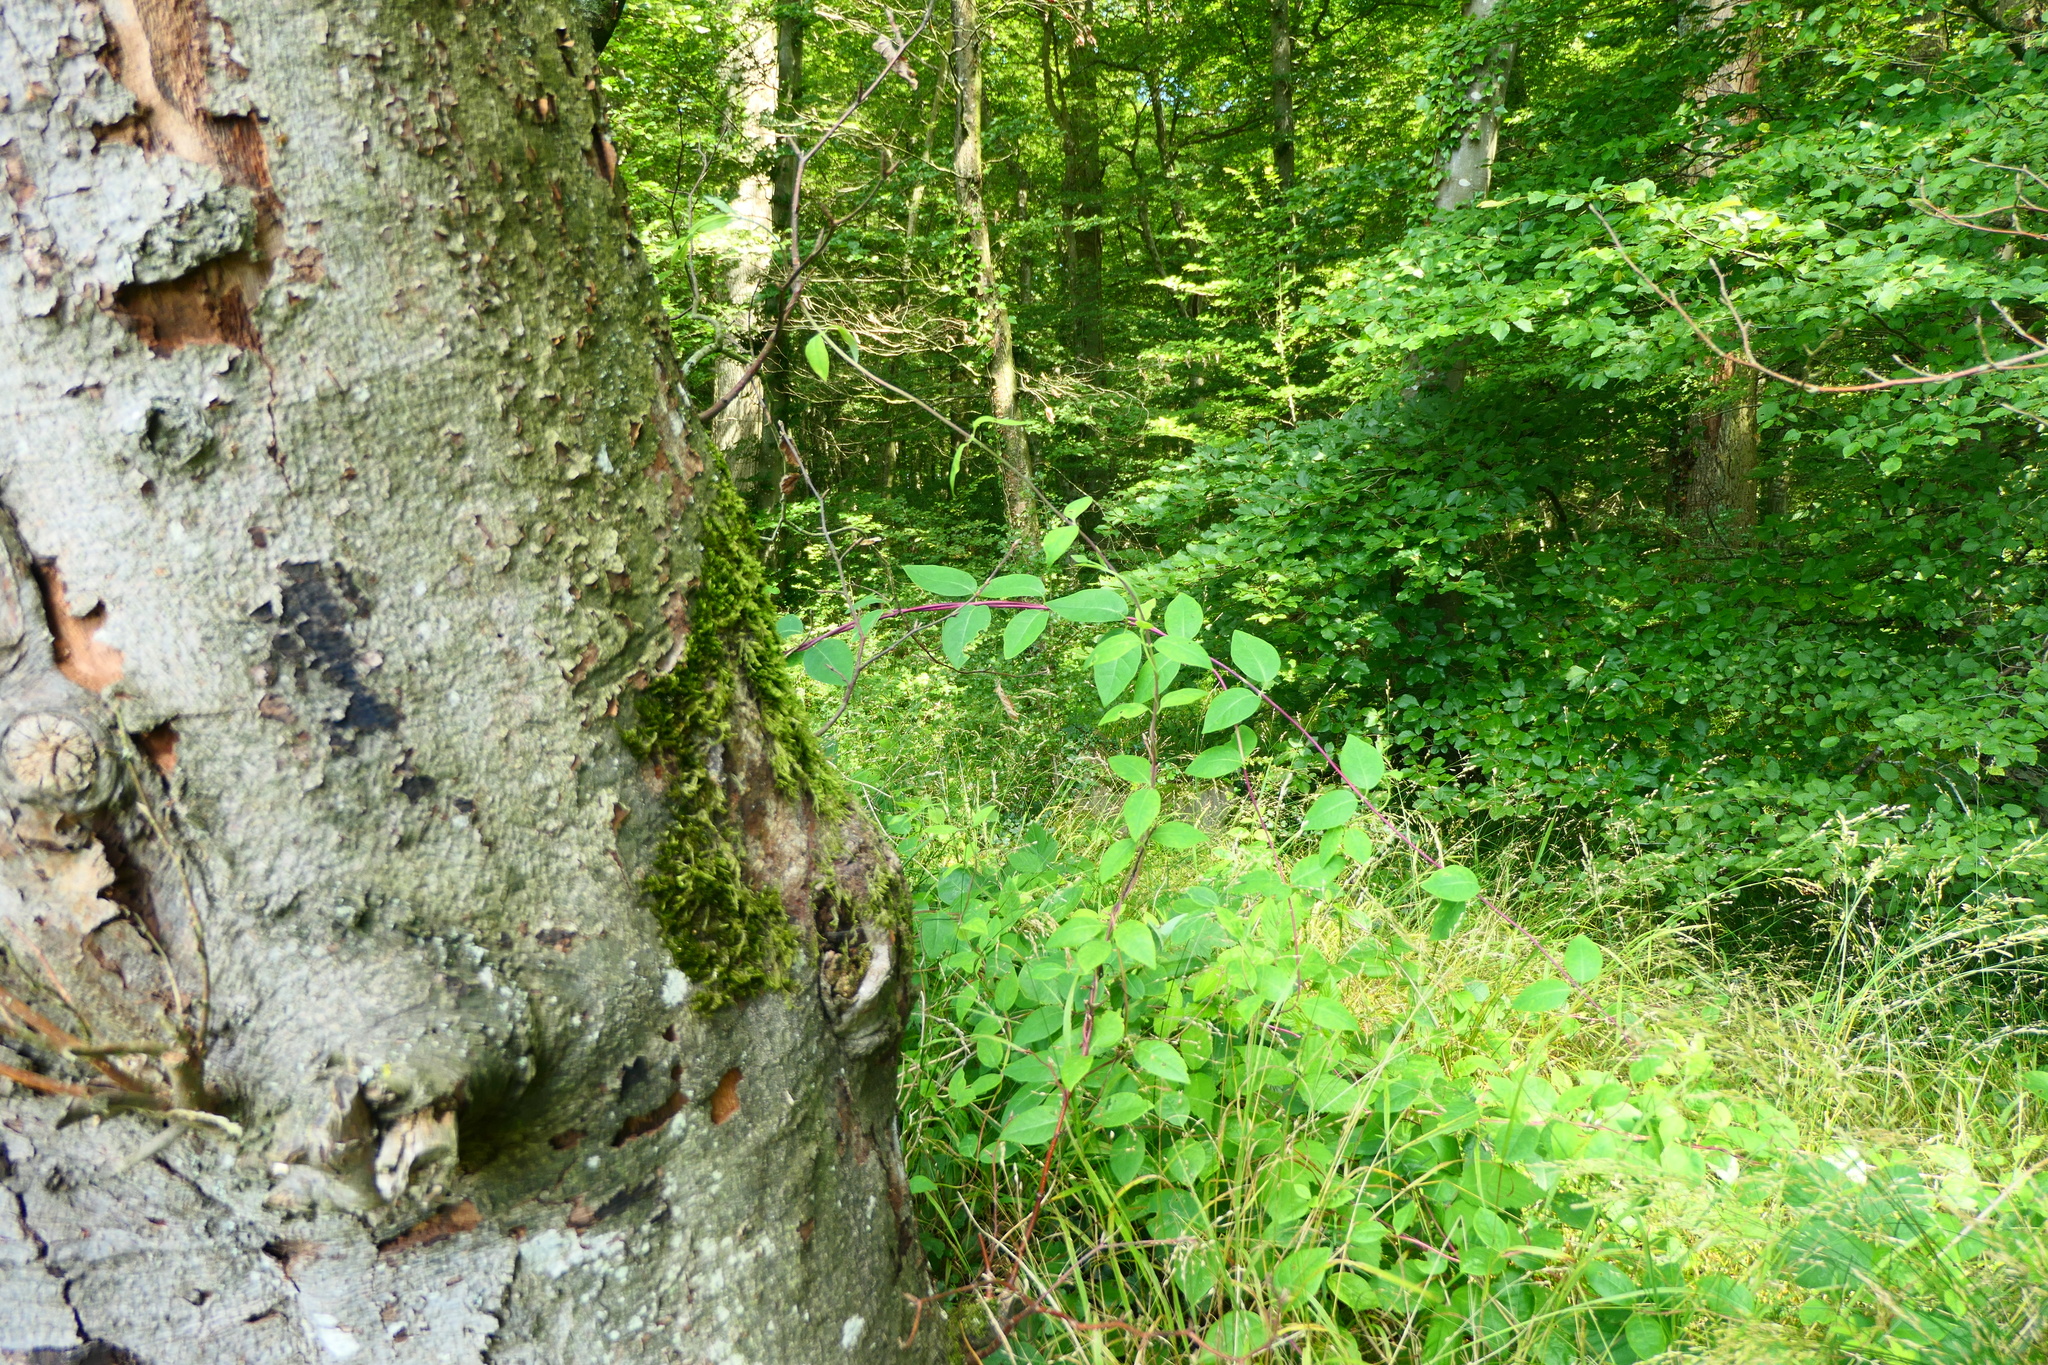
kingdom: Plantae
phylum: Tracheophyta
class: Magnoliopsida
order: Dipsacales
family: Caprifoliaceae
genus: Lonicera
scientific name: Lonicera caprifolium
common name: Perfoliate honeysuckle
